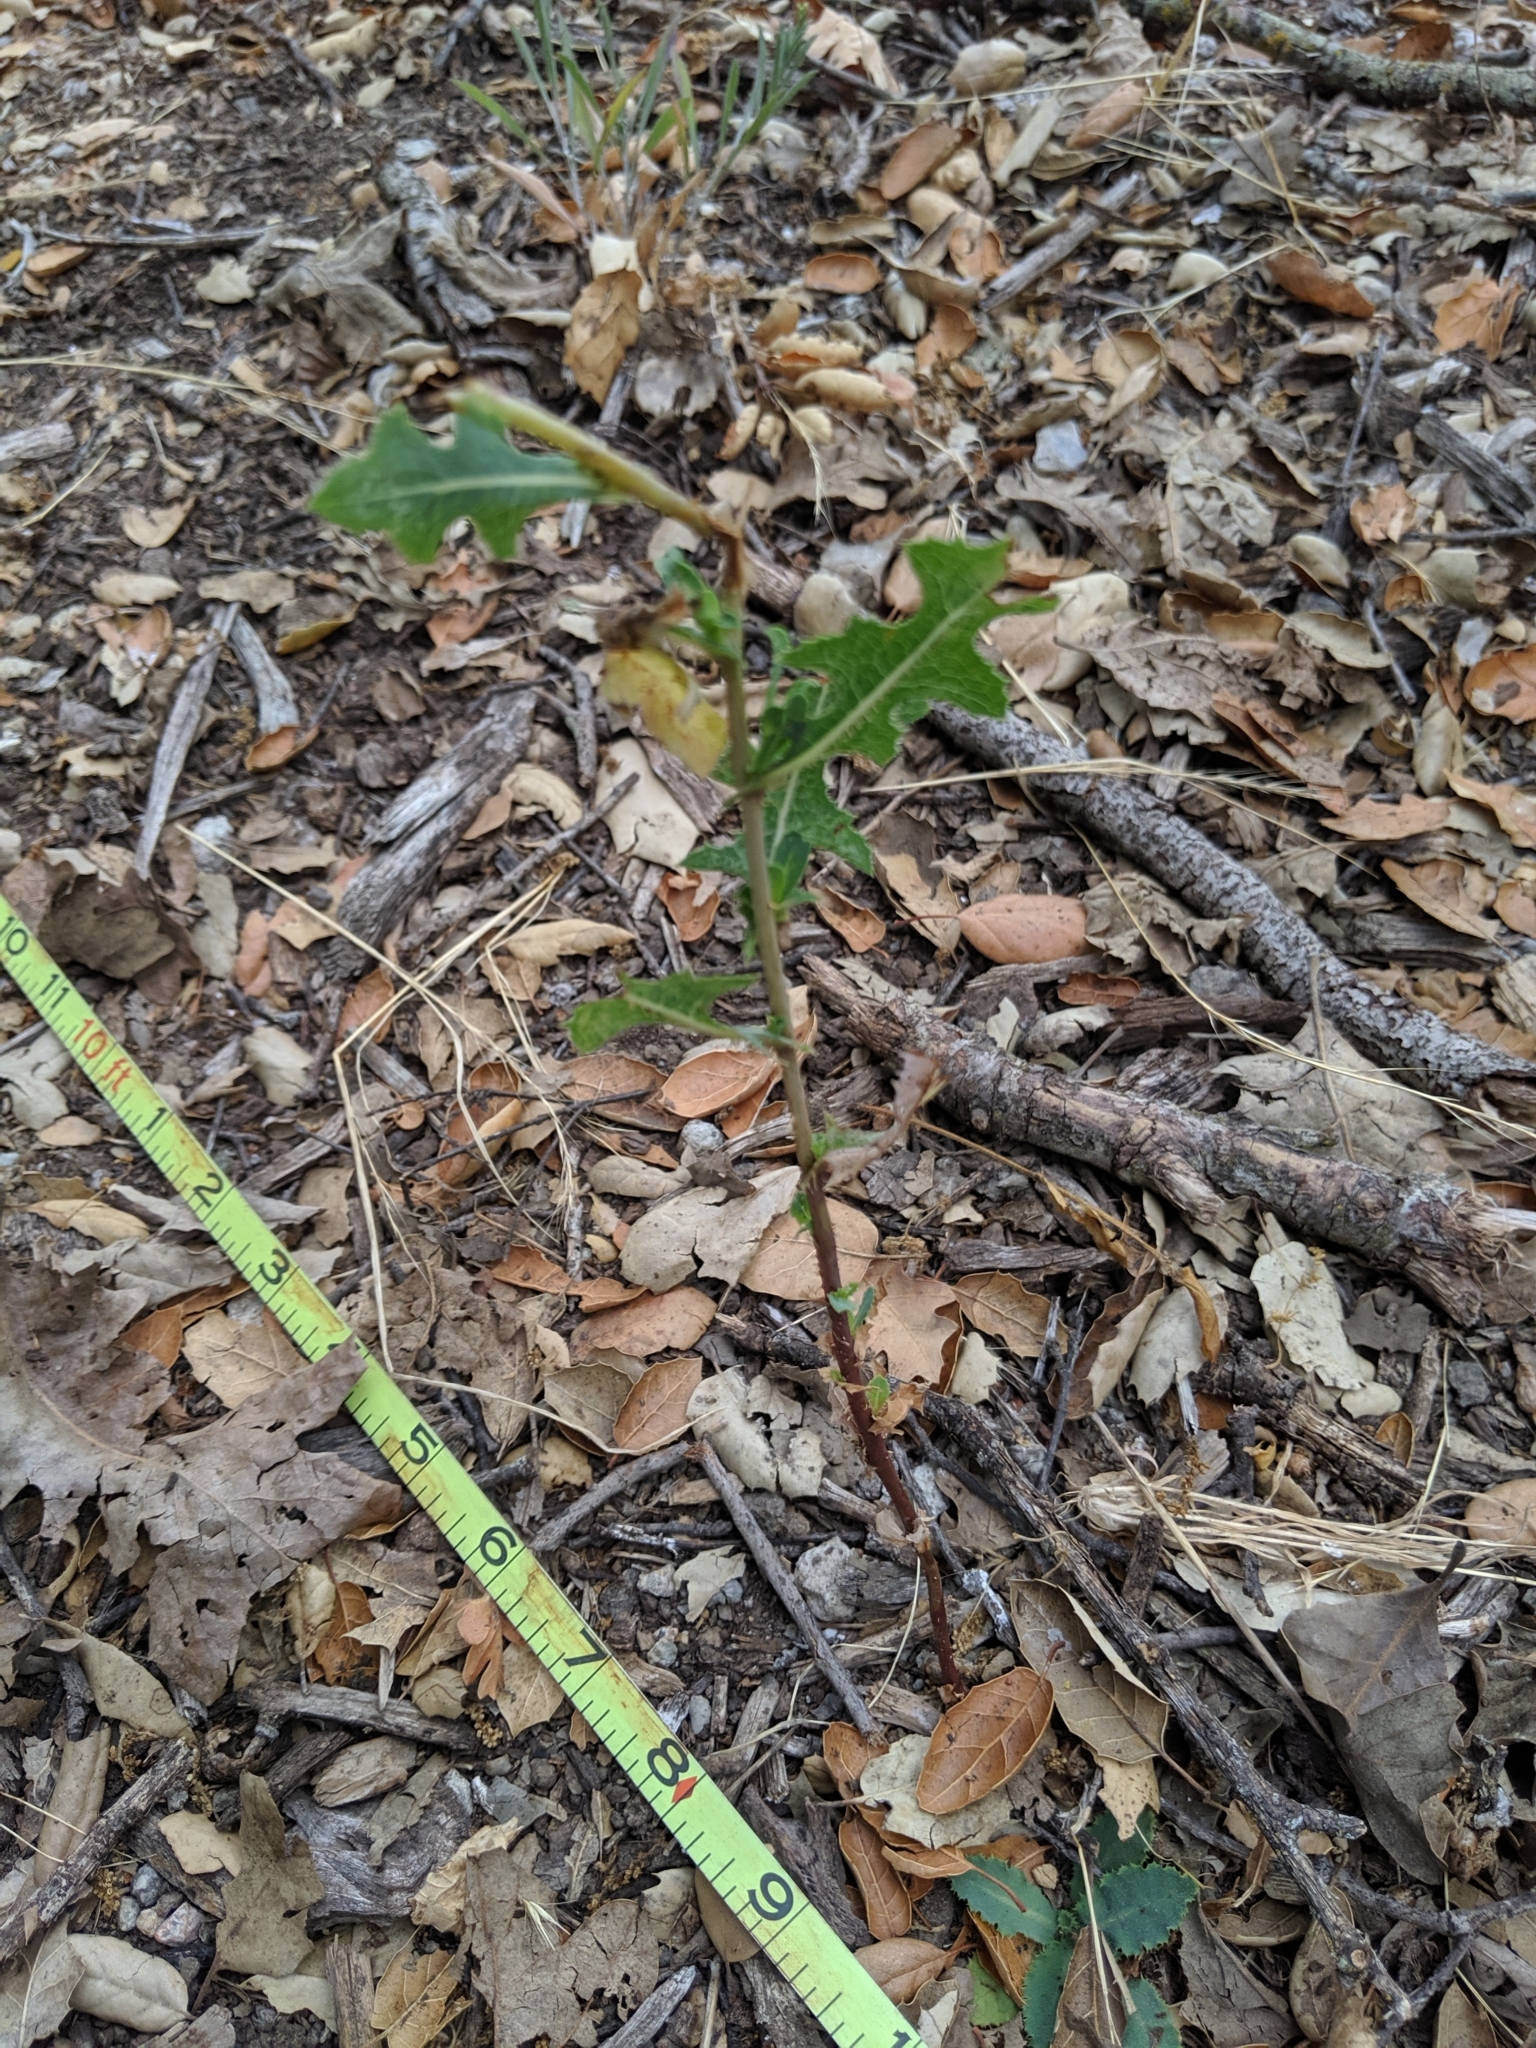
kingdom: Plantae
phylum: Tracheophyta
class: Magnoliopsida
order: Asterales
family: Asteraceae
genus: Lactuca
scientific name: Lactuca serriola
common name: Prickly lettuce
